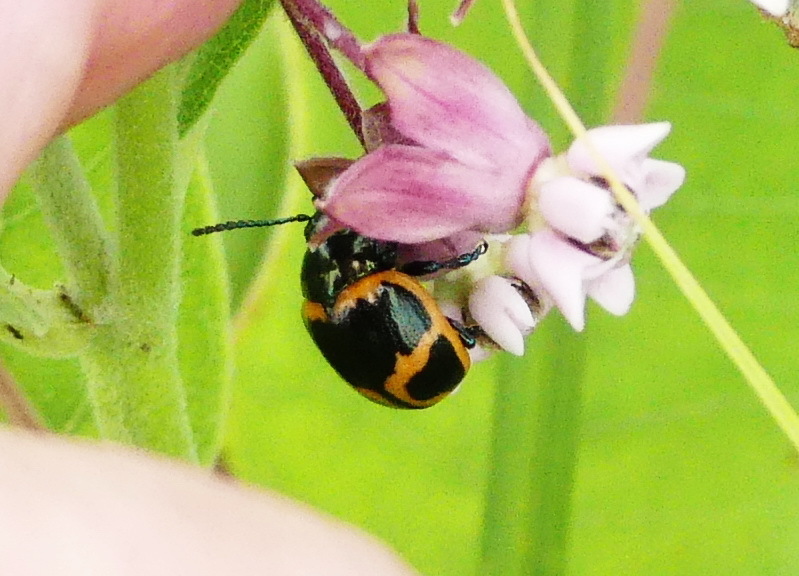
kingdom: Animalia
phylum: Arthropoda
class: Insecta
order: Coleoptera
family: Chrysomelidae
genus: Labidomera
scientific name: Labidomera clivicollis
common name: Swamp milkweed leaf beetle
